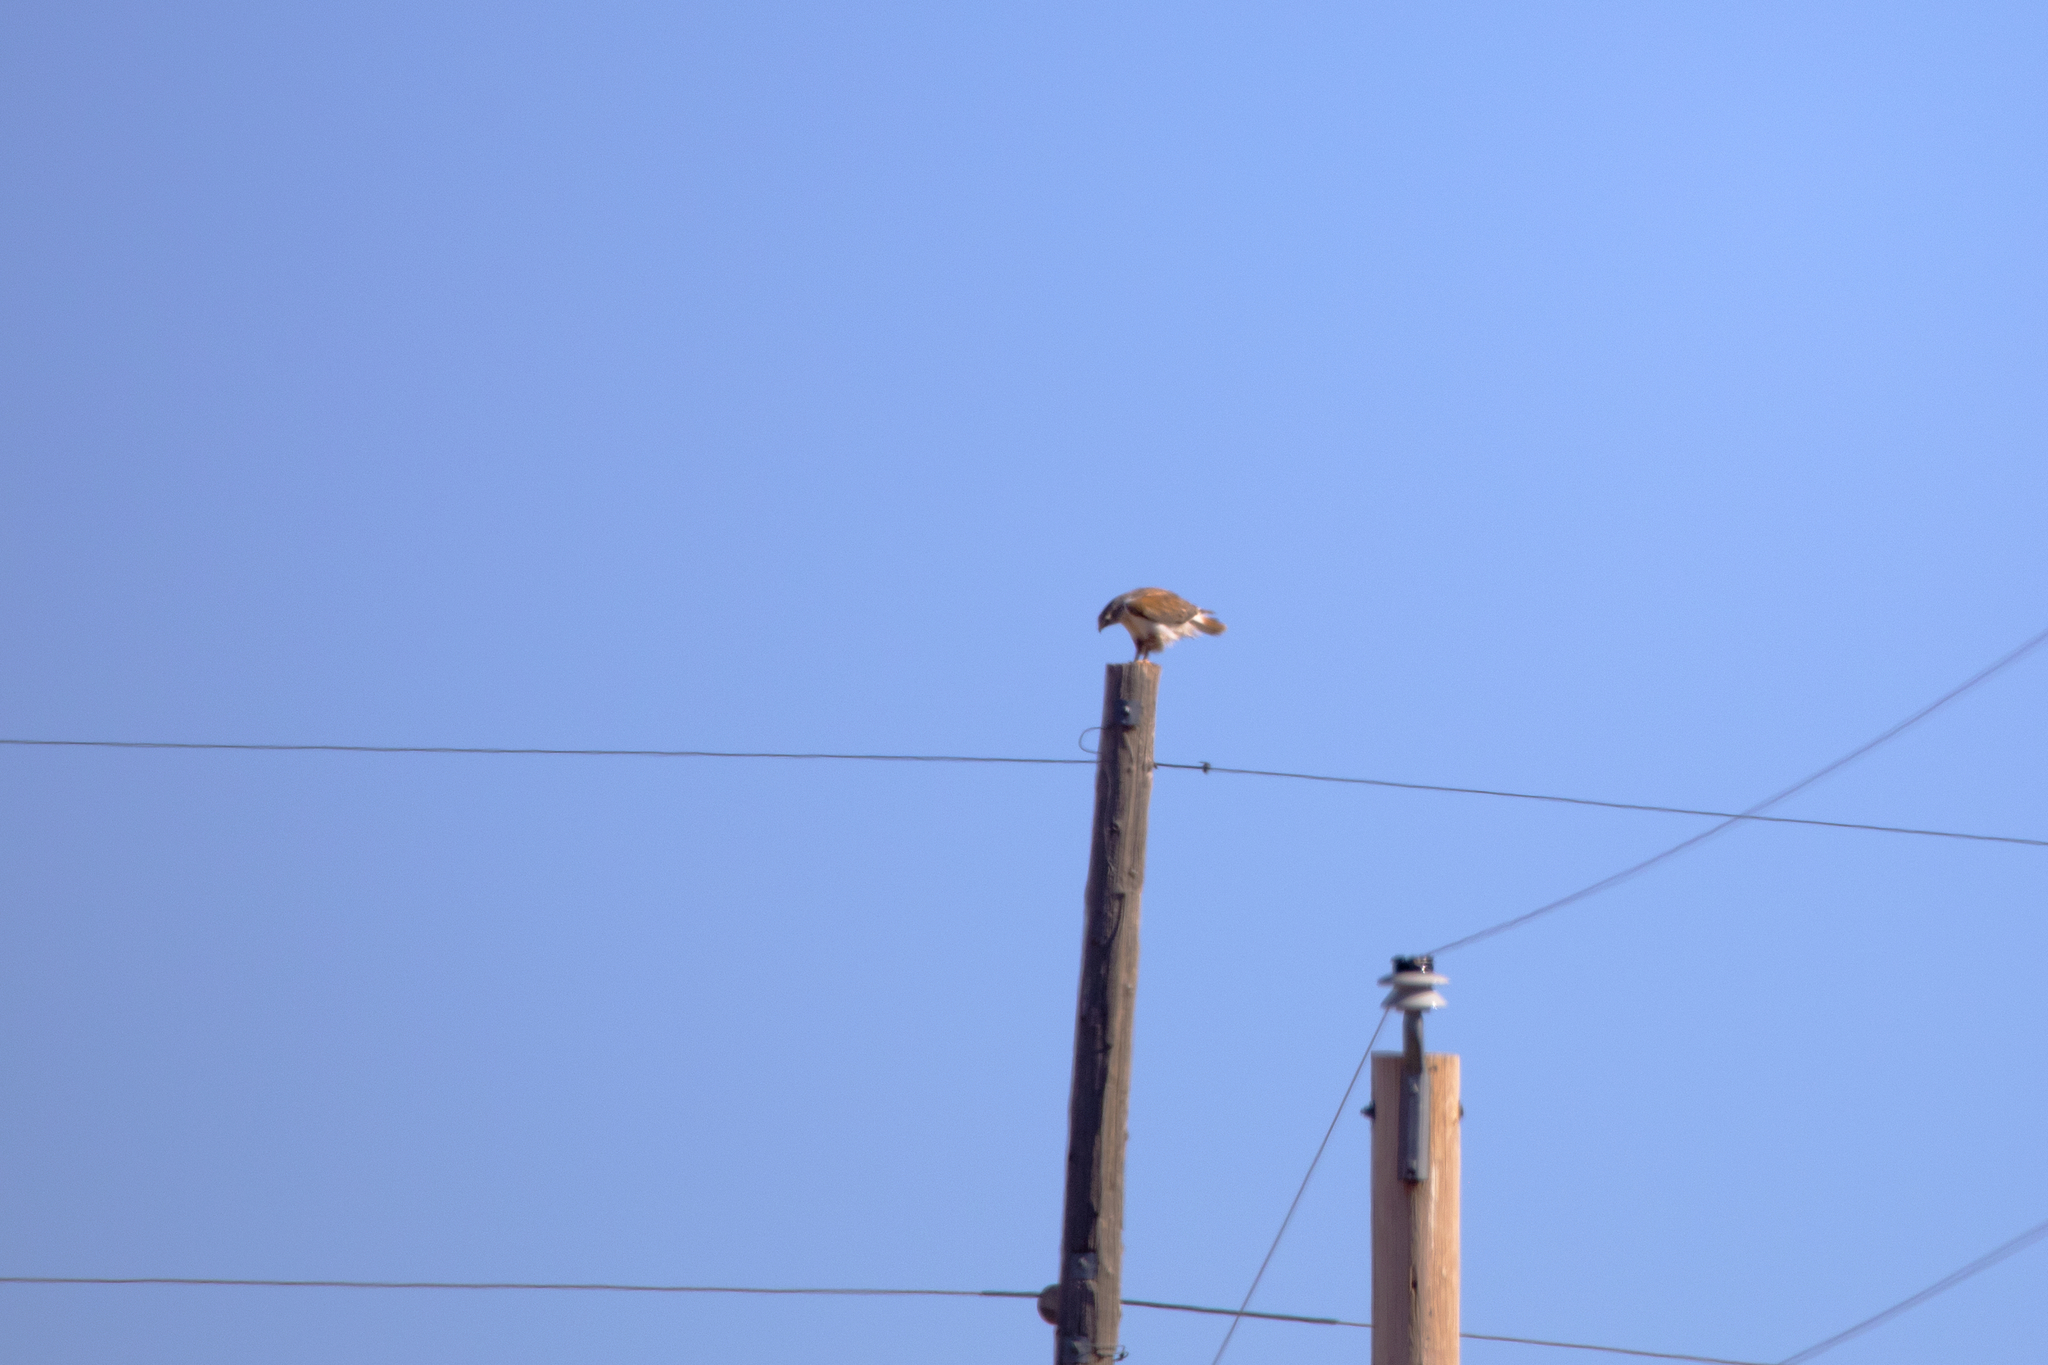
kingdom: Animalia
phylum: Chordata
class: Aves
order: Accipitriformes
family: Accipitridae
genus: Buteo
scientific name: Buteo regalis
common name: Ferruginous hawk
